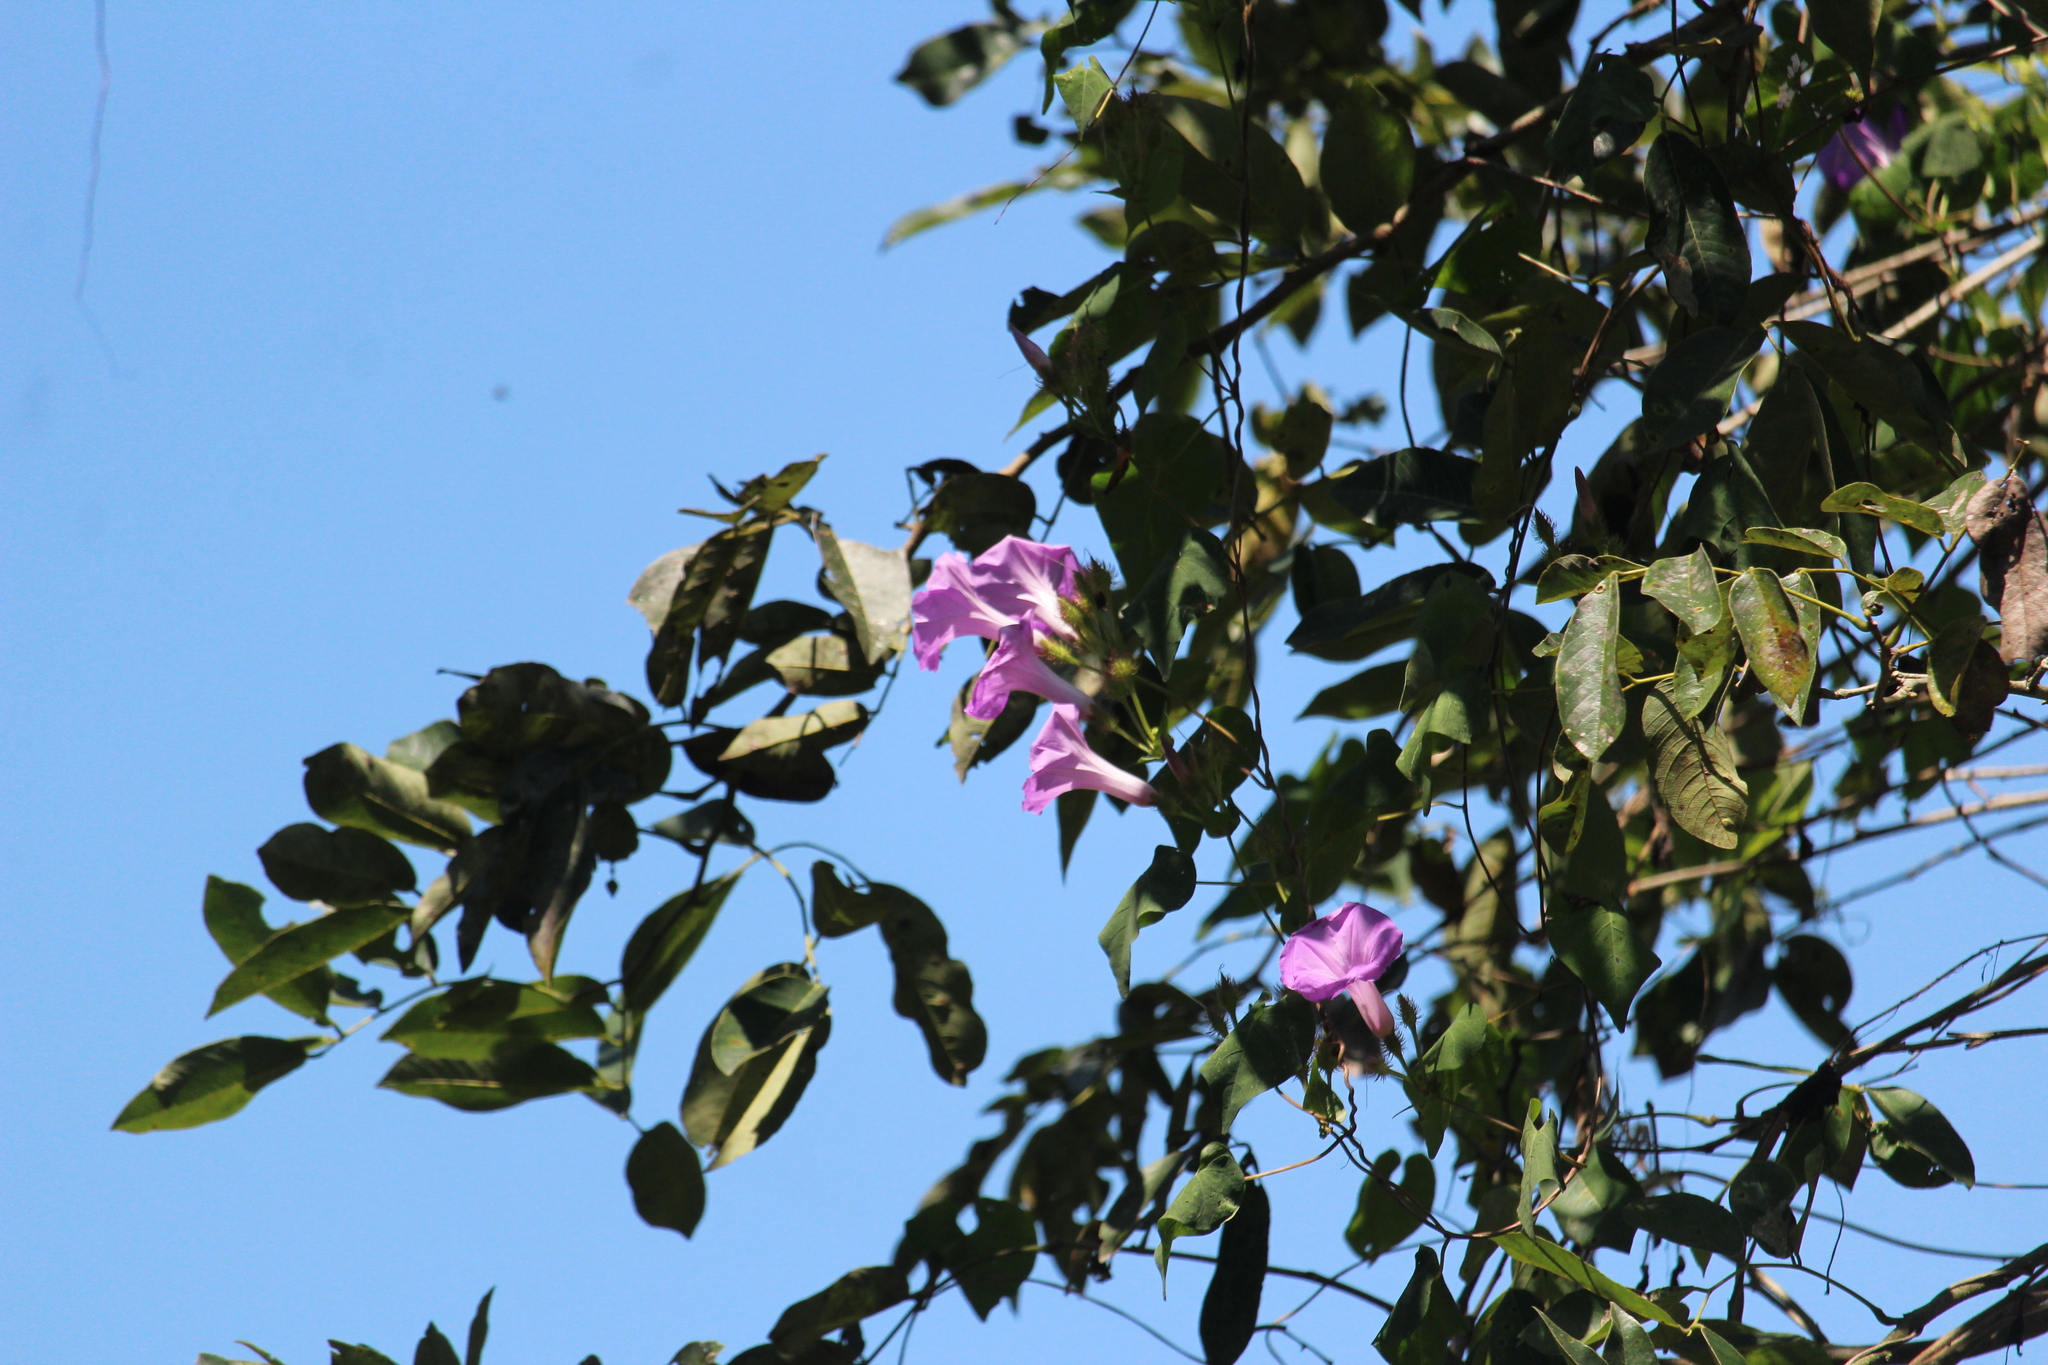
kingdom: Plantae
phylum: Tracheophyta
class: Magnoliopsida
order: Solanales
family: Convolvulaceae
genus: Ipomoea
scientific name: Ipomoea crinicalyx
